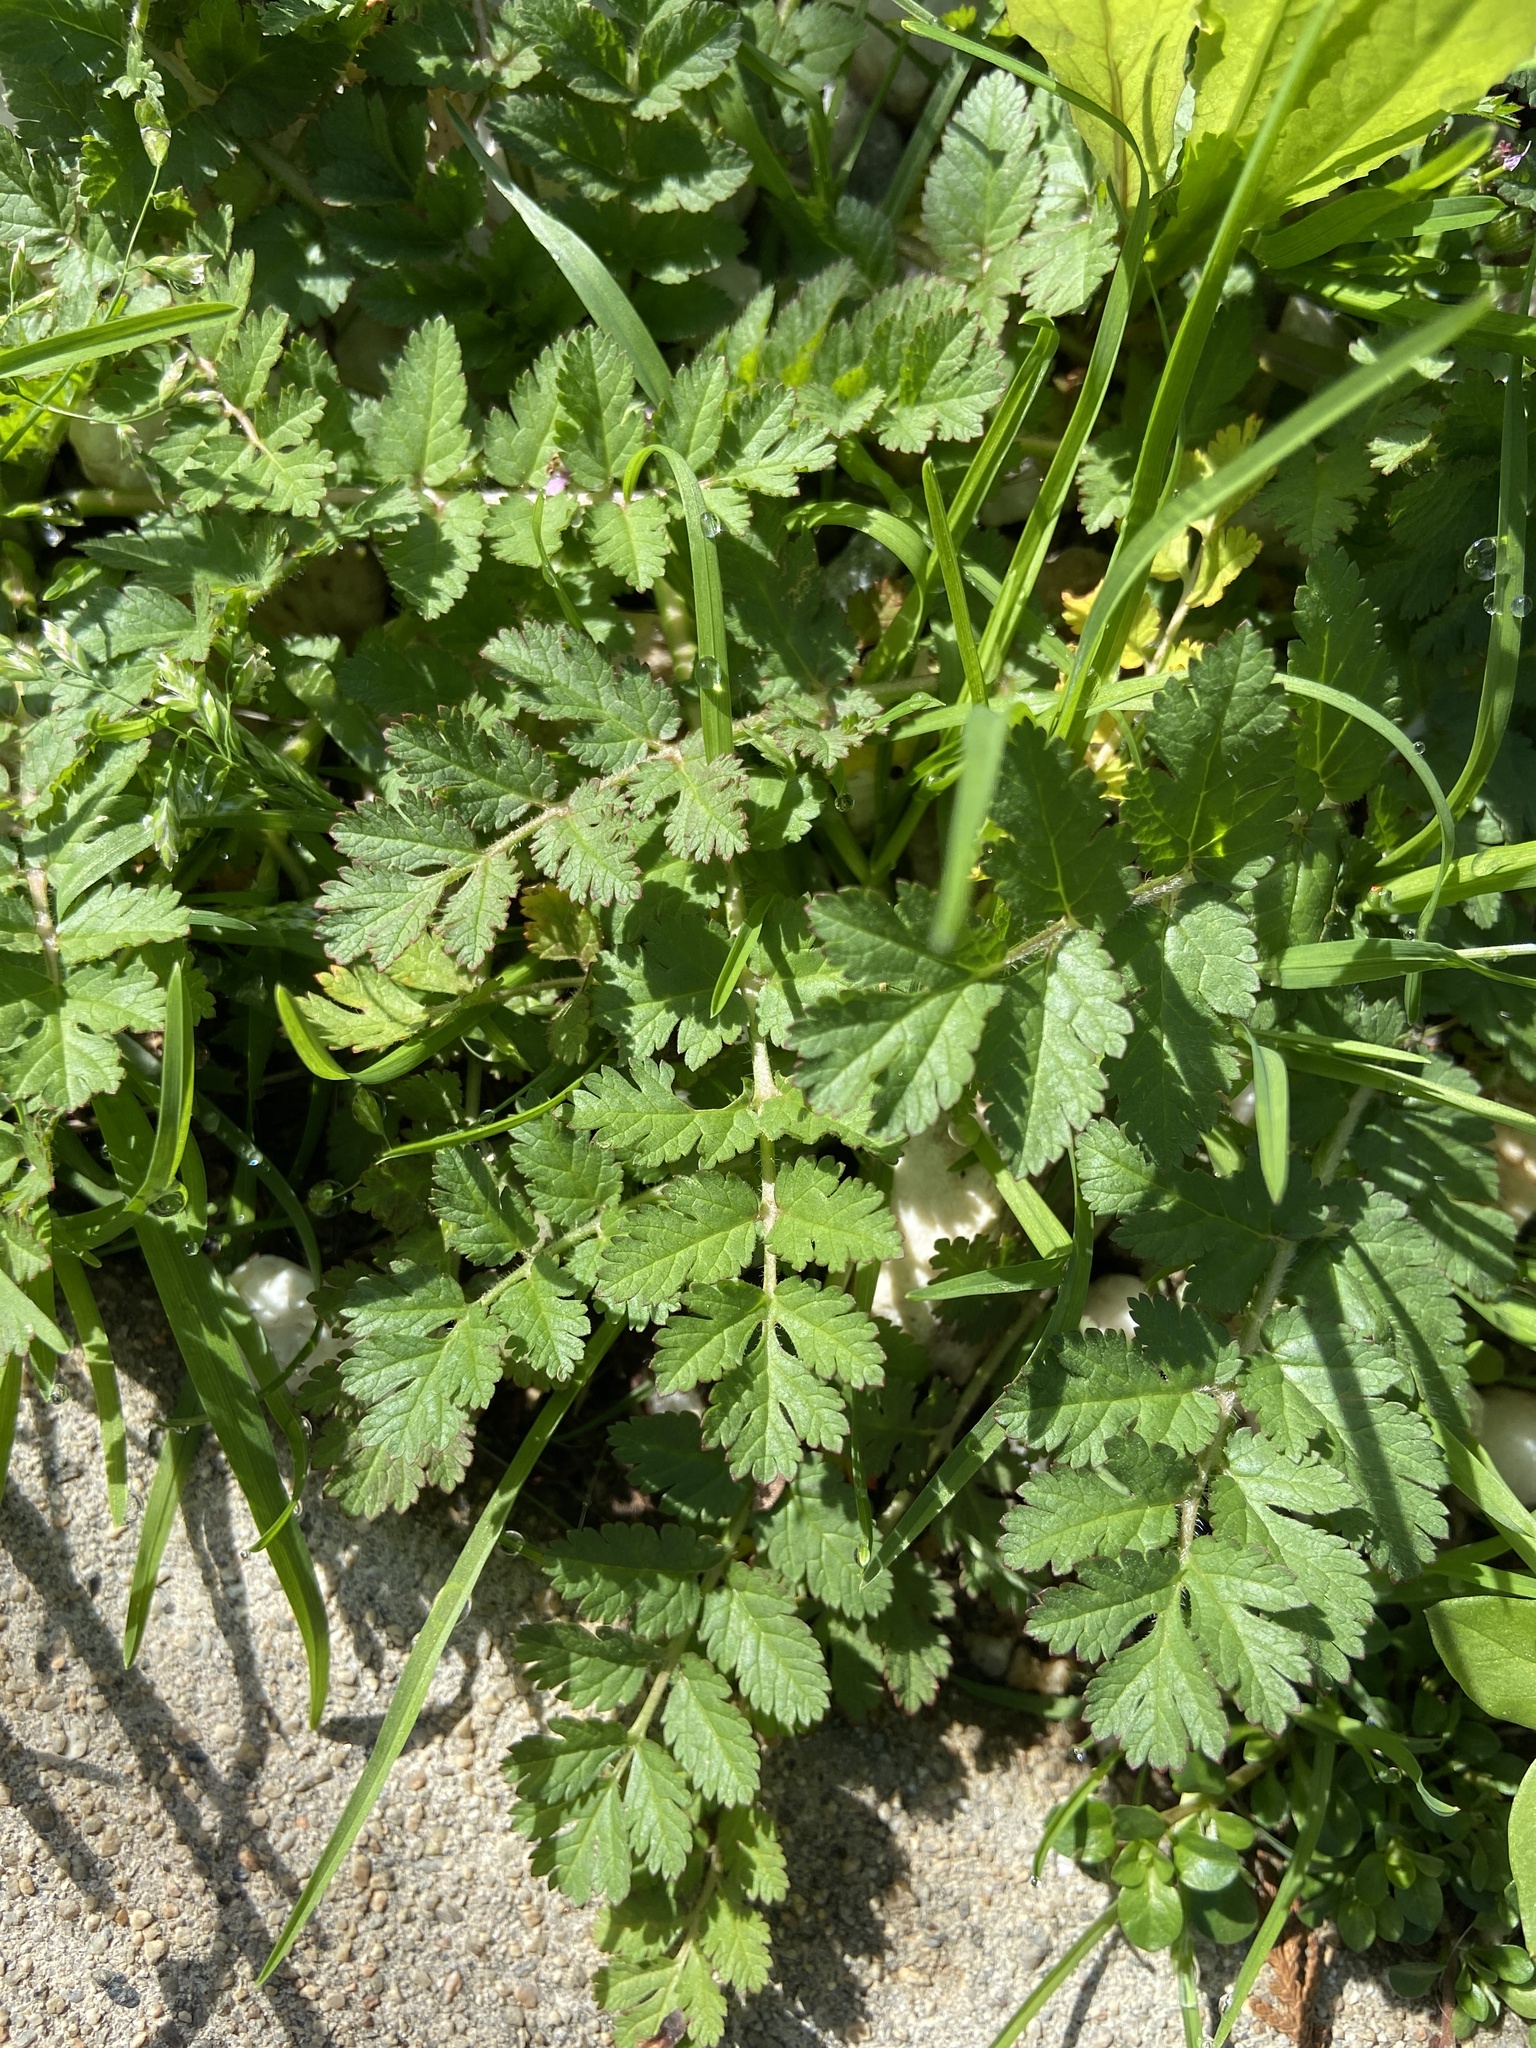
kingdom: Plantae
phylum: Tracheophyta
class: Magnoliopsida
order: Geraniales
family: Geraniaceae
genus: Erodium
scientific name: Erodium moschatum
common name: Musk stork's-bill
